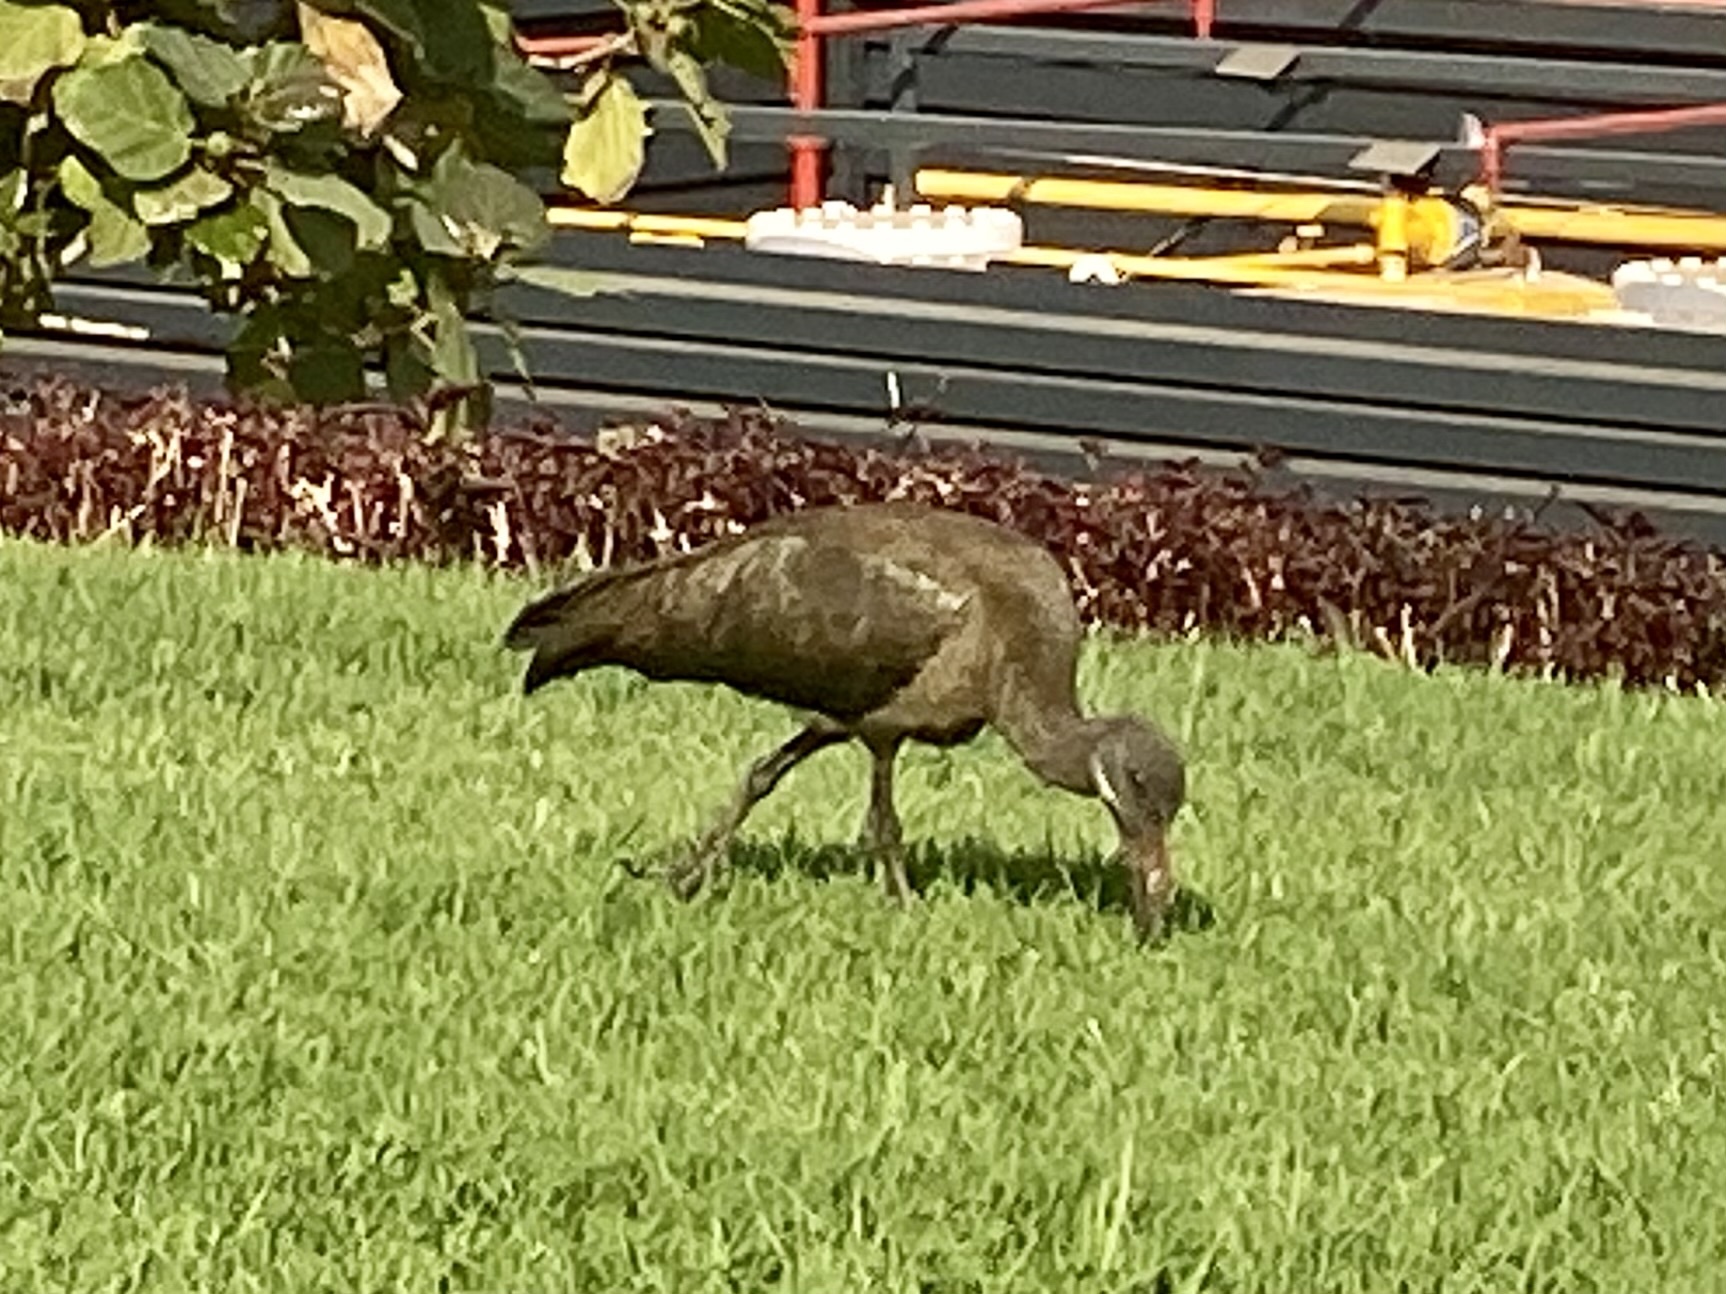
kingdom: Animalia
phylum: Chordata
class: Aves
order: Pelecaniformes
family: Threskiornithidae
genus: Bostrychia
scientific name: Bostrychia hagedash
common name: Hadada ibis
